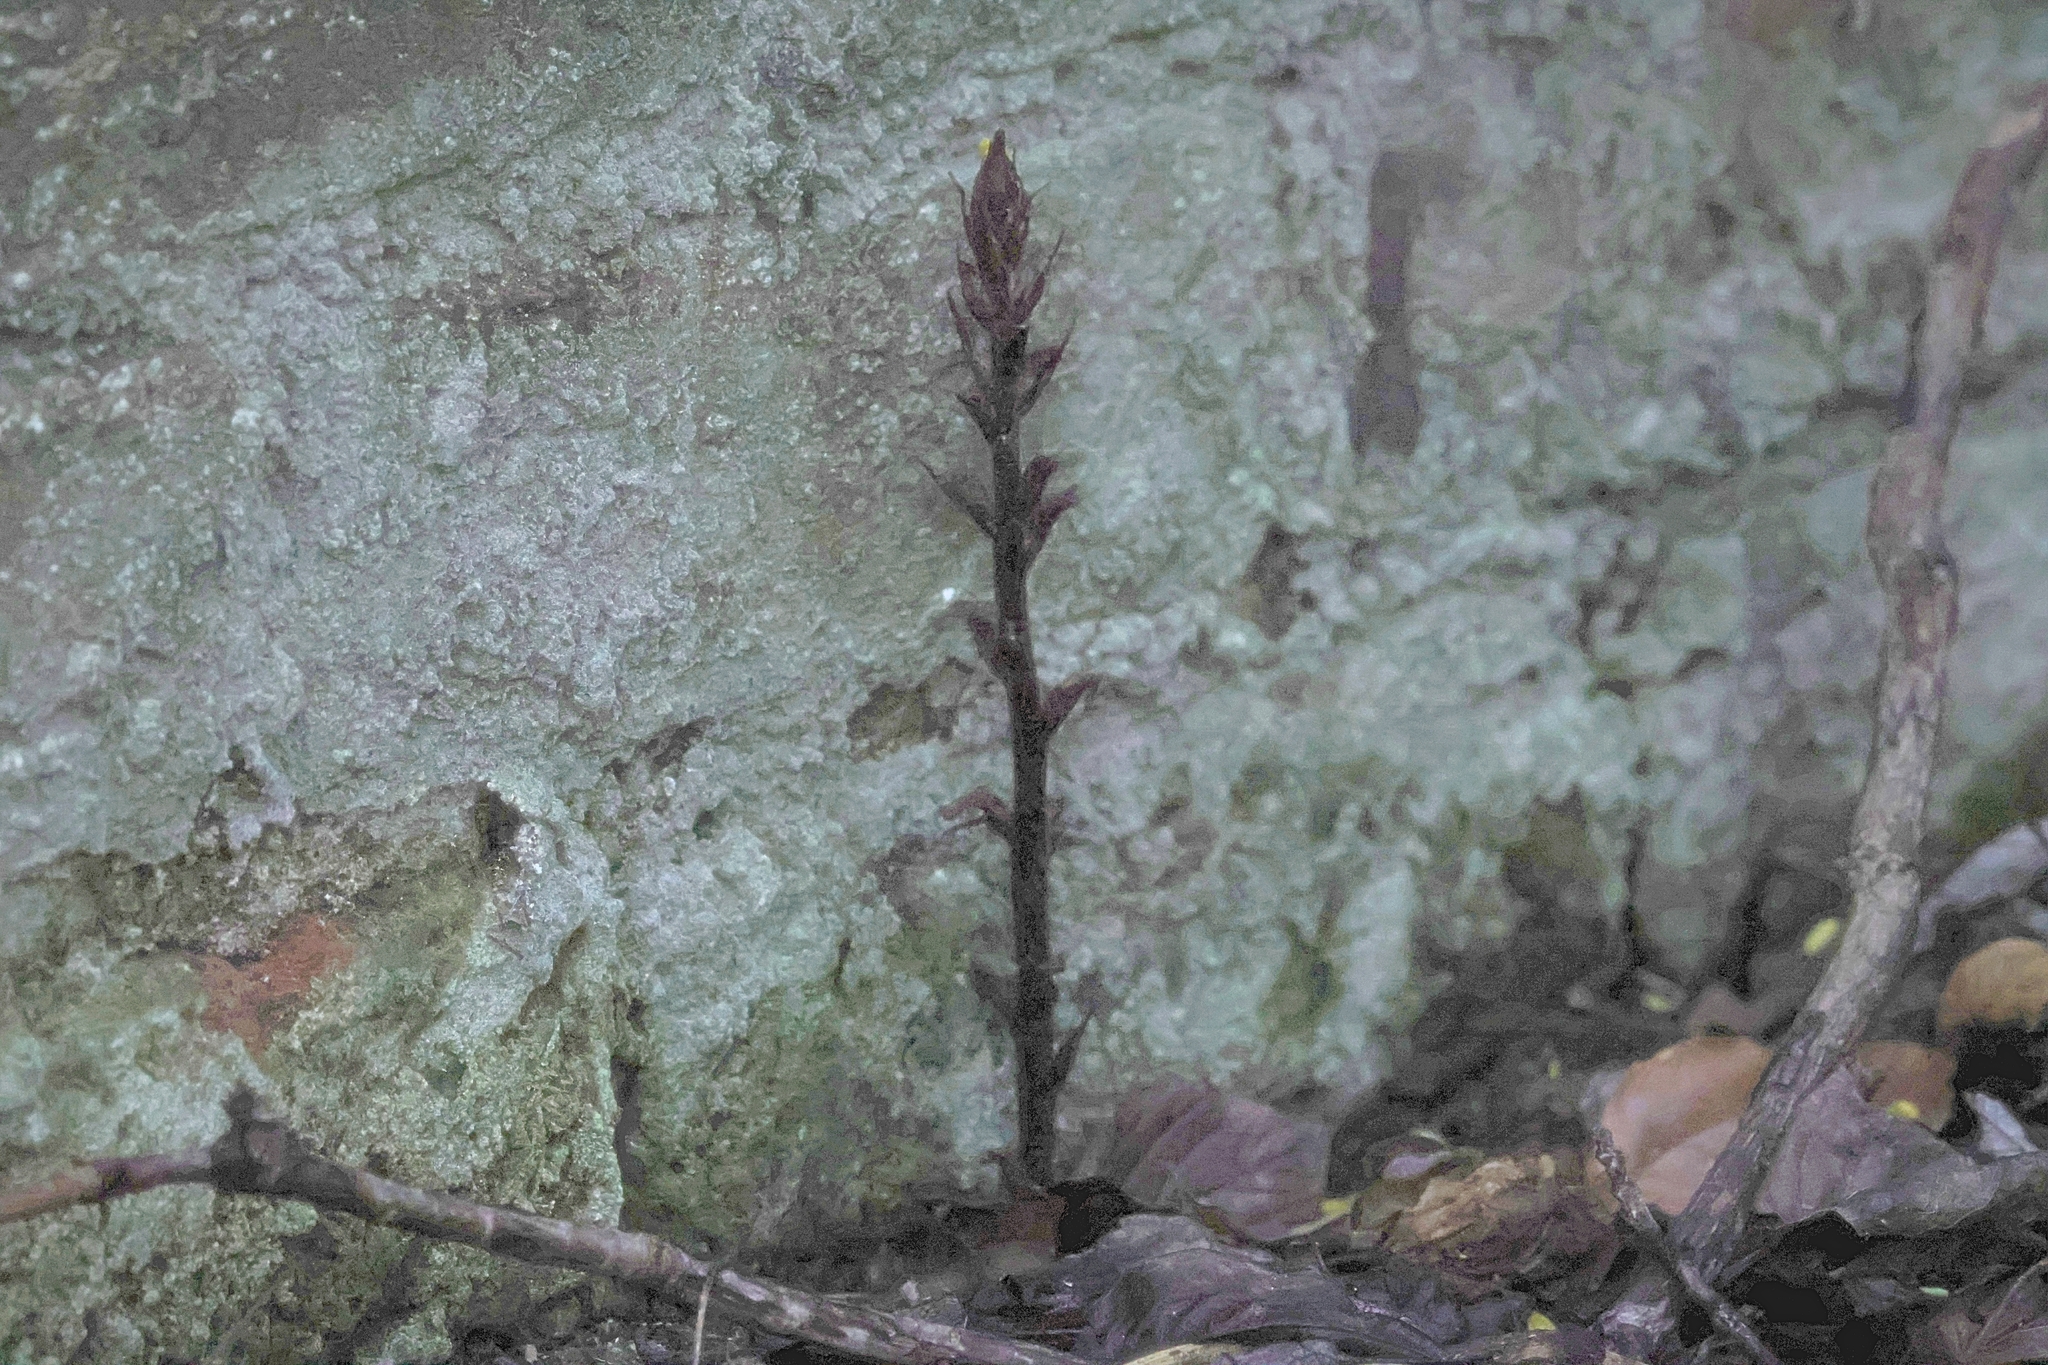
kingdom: Plantae
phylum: Tracheophyta
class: Magnoliopsida
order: Lamiales
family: Orobanchaceae
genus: Orobanche
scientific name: Orobanche hederae
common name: Ivy broomrape
